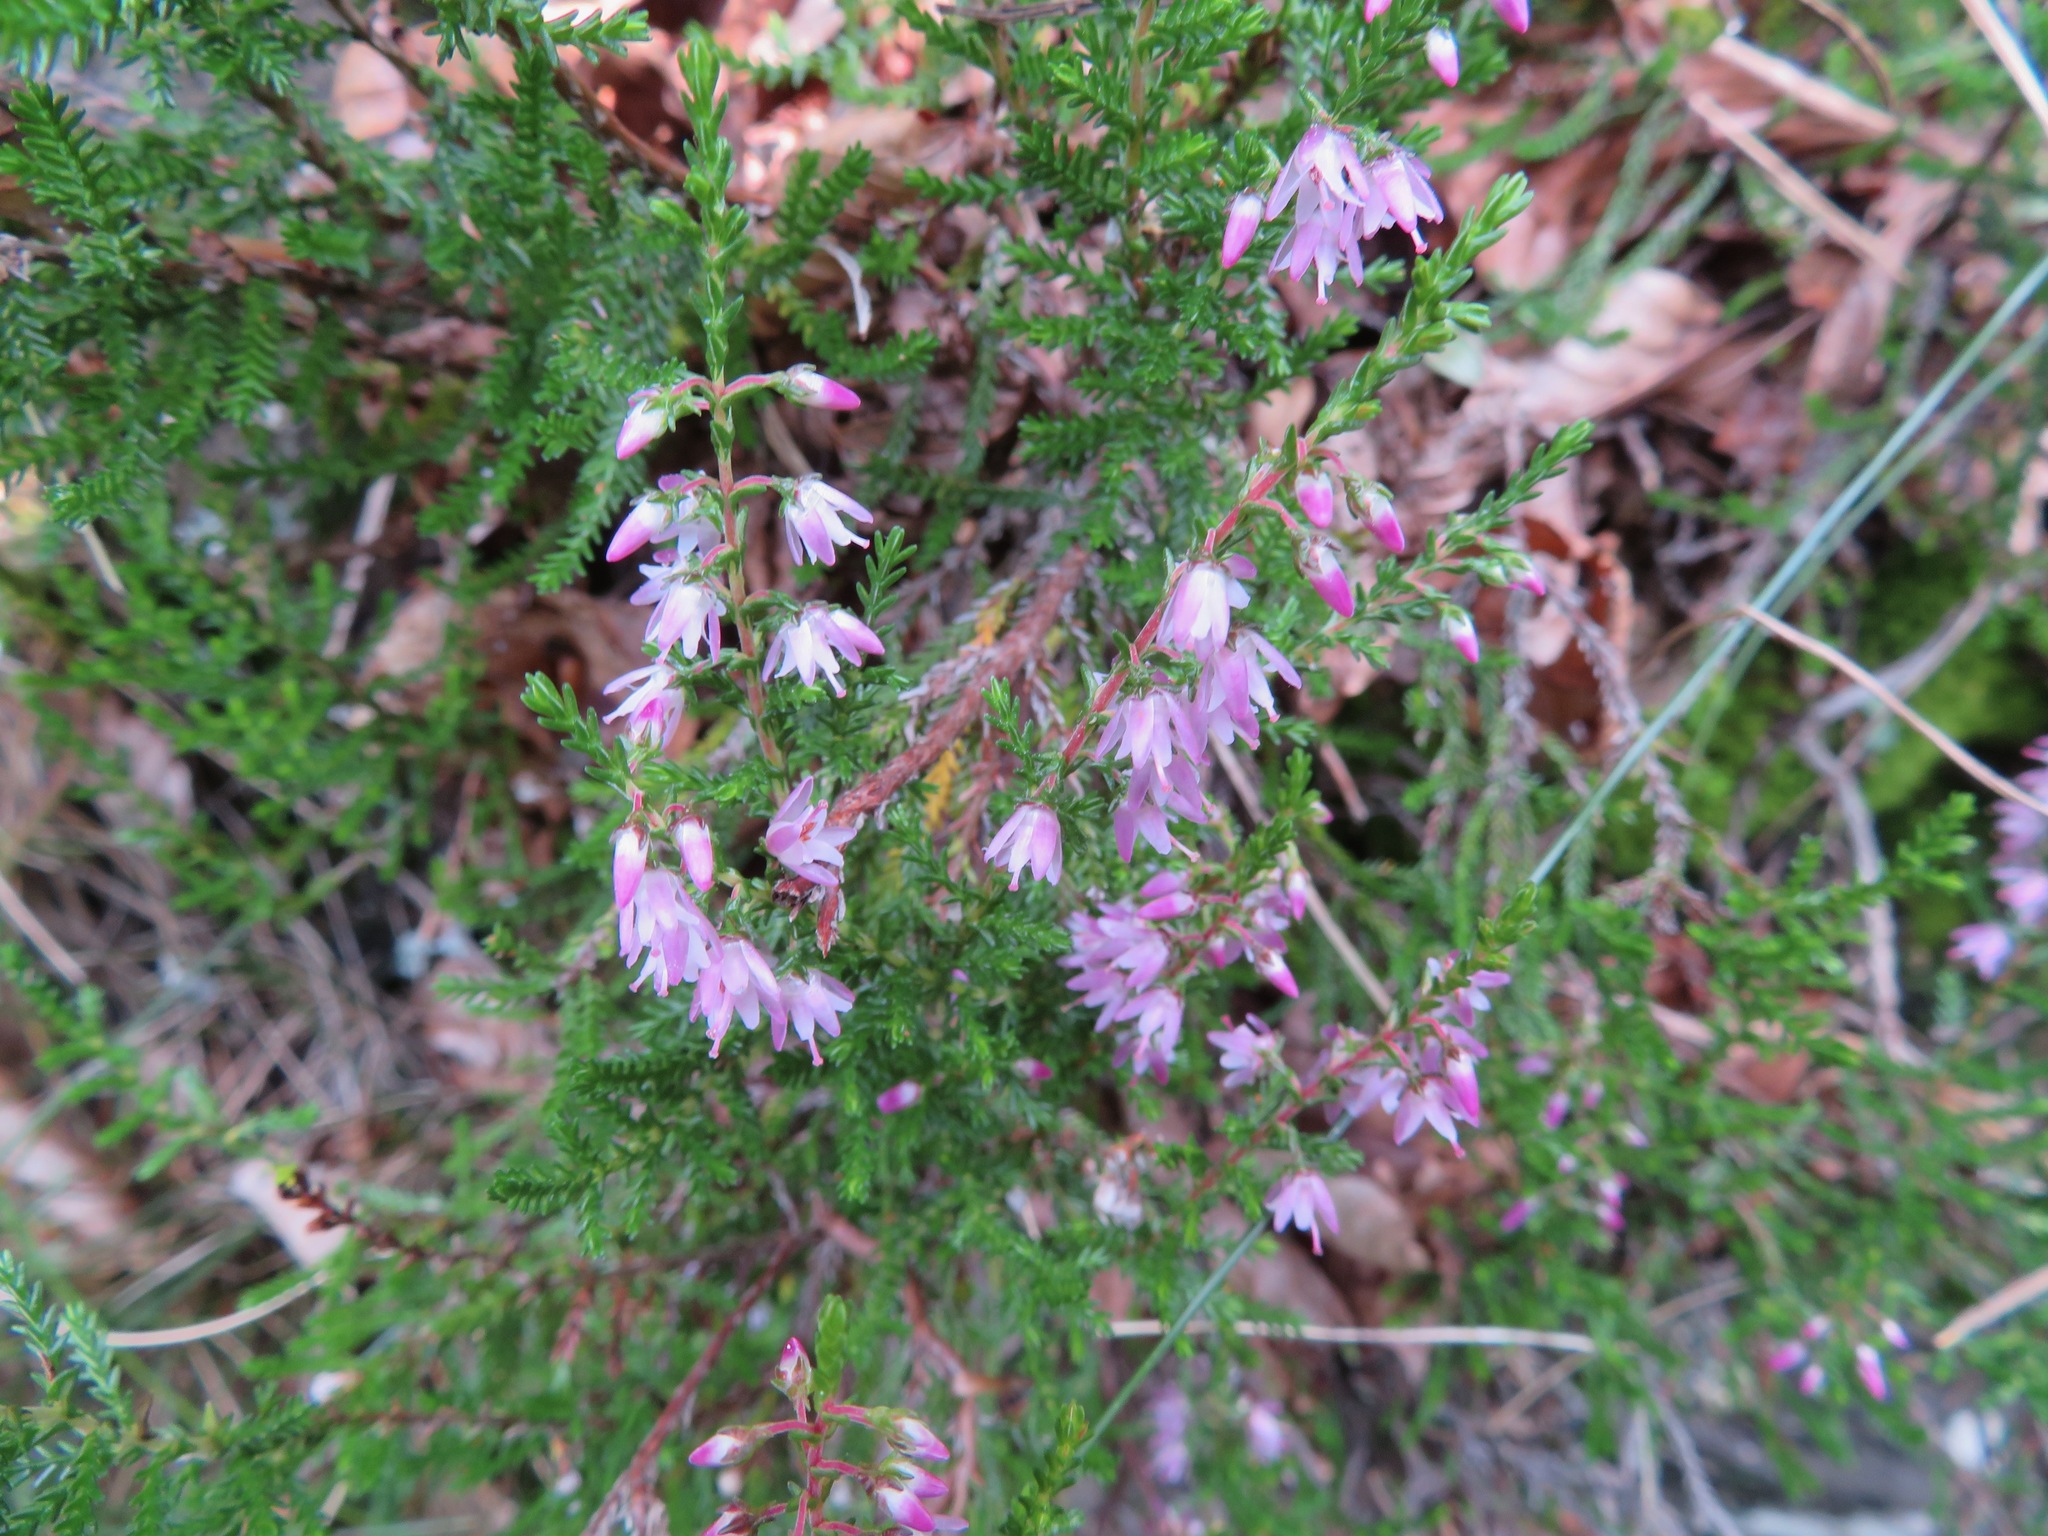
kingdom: Plantae
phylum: Tracheophyta
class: Magnoliopsida
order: Ericales
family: Ericaceae
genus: Calluna
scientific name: Calluna vulgaris
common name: Heather
